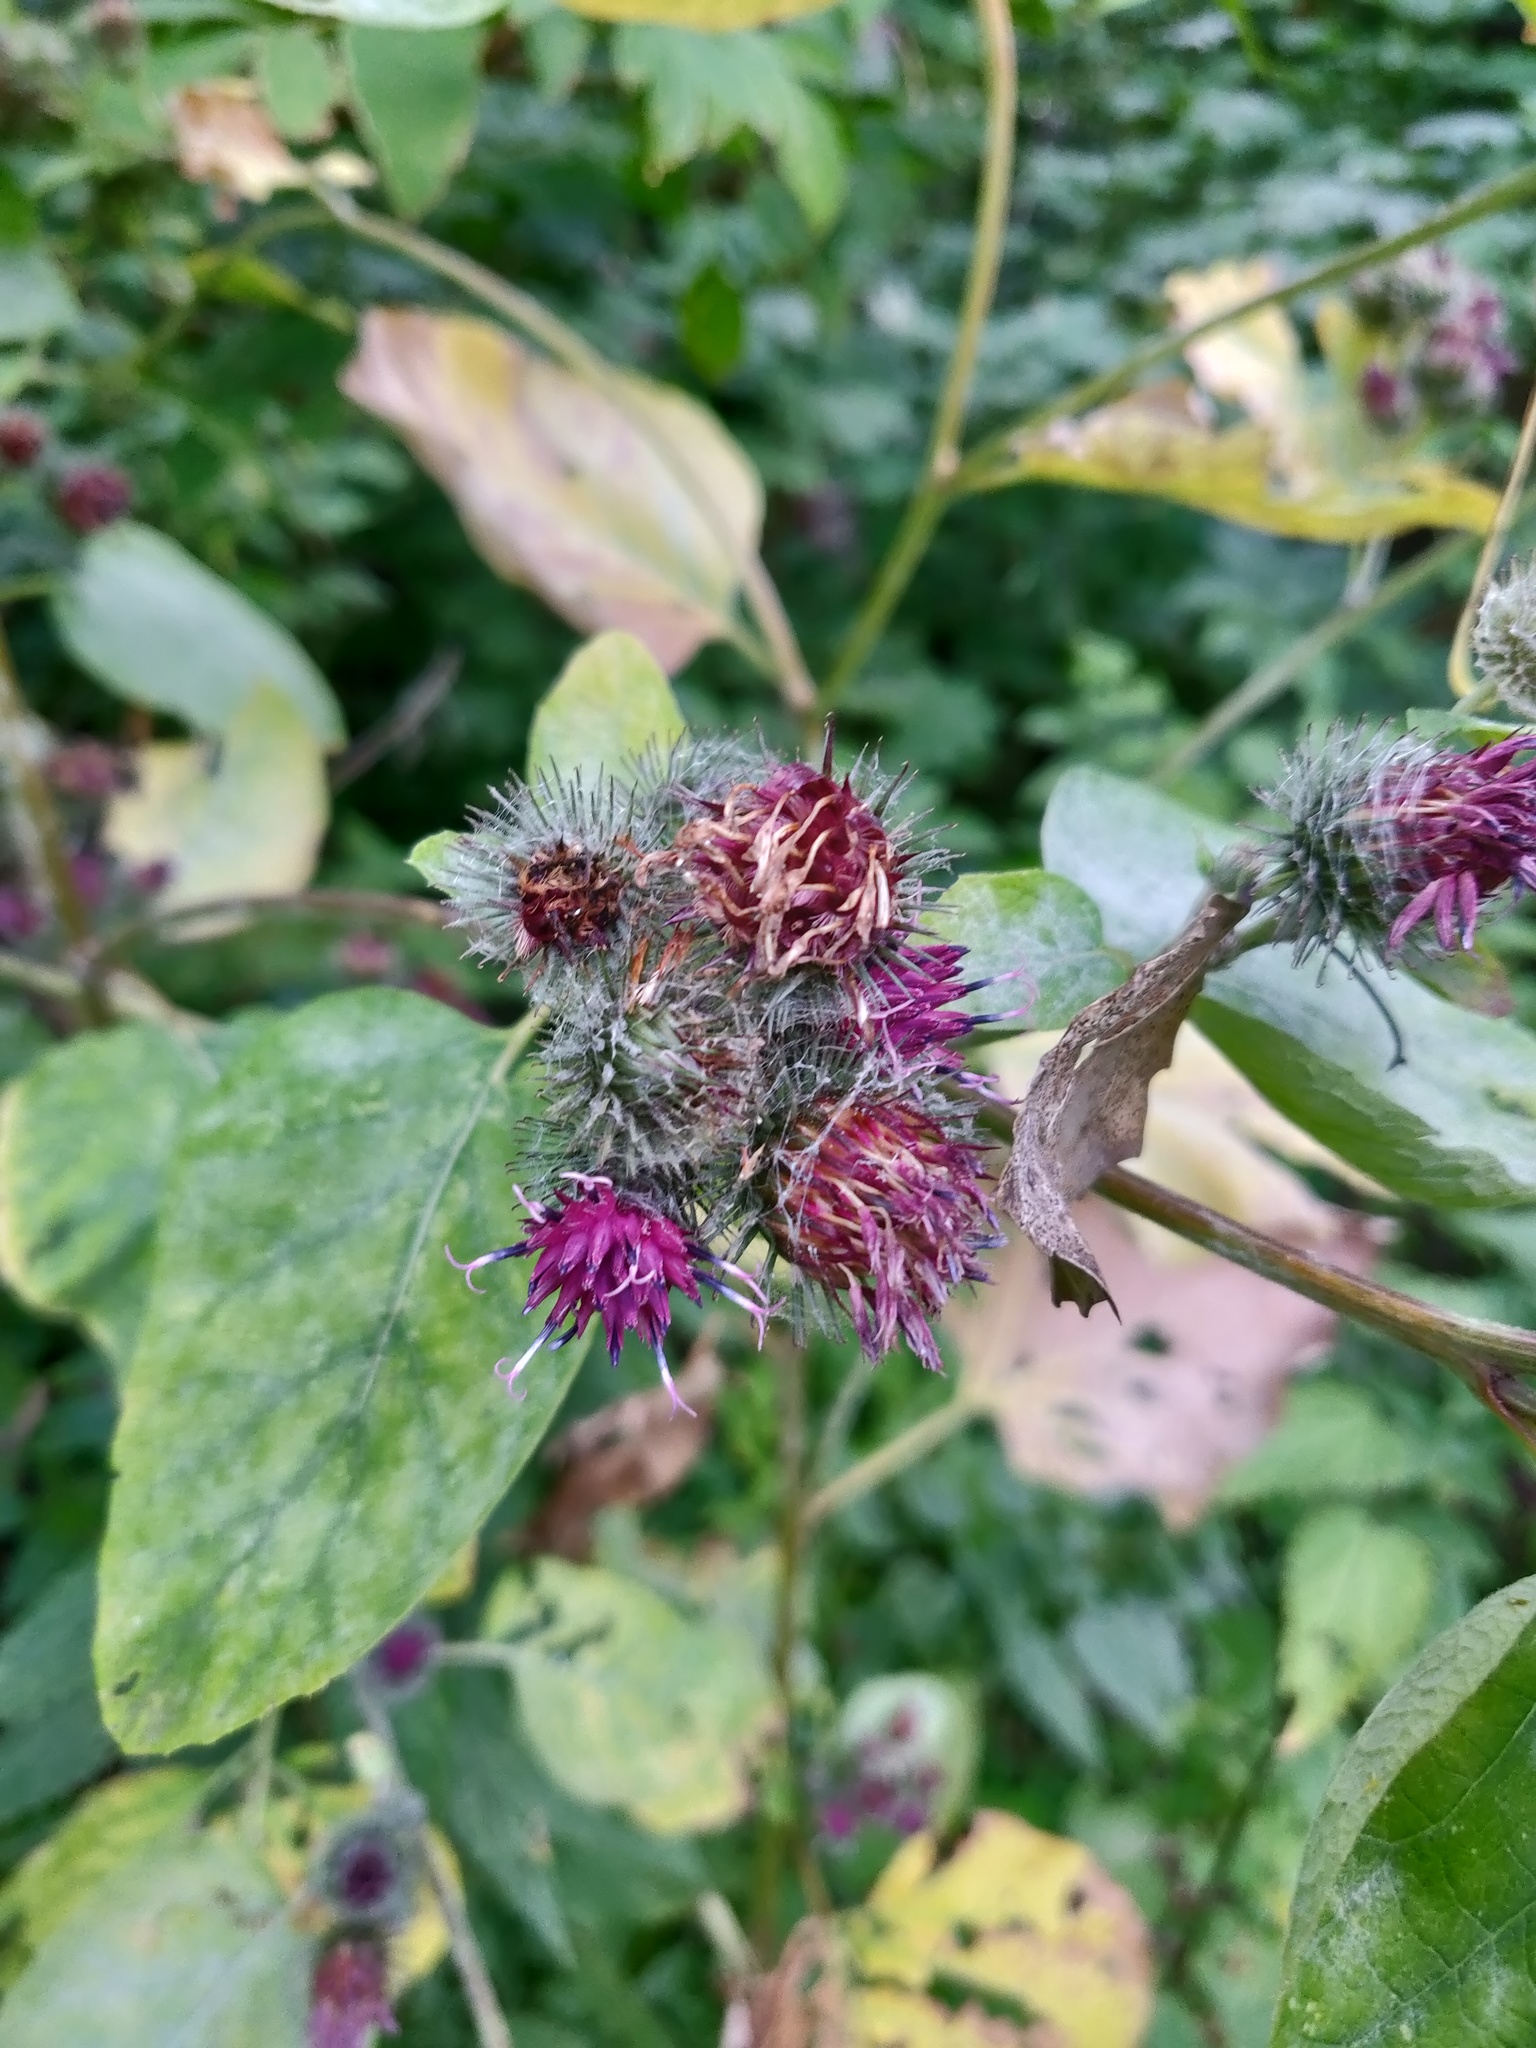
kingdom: Plantae
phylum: Tracheophyta
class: Magnoliopsida
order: Asterales
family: Asteraceae
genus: Arctium
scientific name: Arctium tomentosum
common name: Woolly burdock
